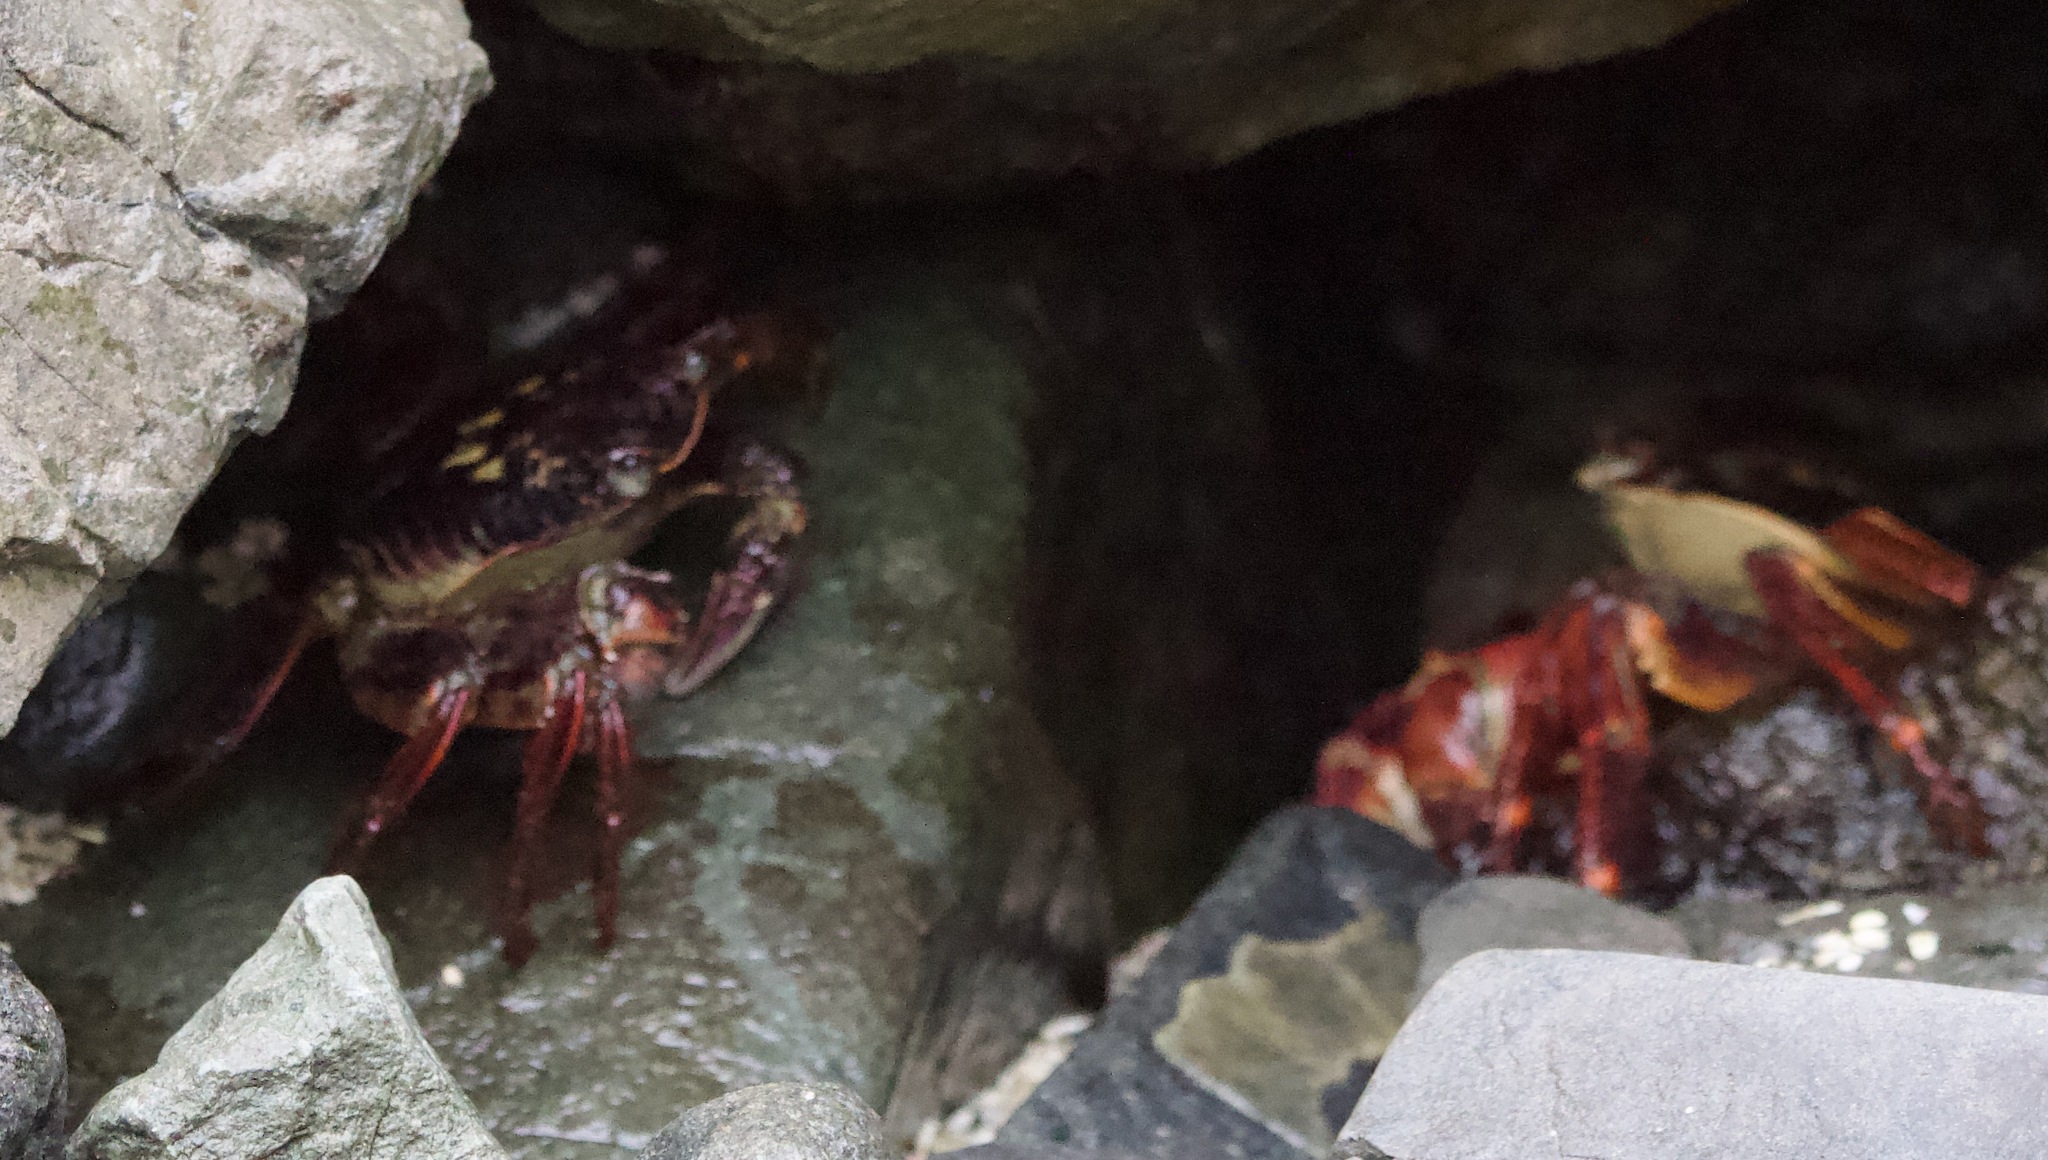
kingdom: Animalia
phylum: Arthropoda
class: Malacostraca
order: Decapoda
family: Grapsidae
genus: Leptograpsus
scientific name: Leptograpsus variegatus
